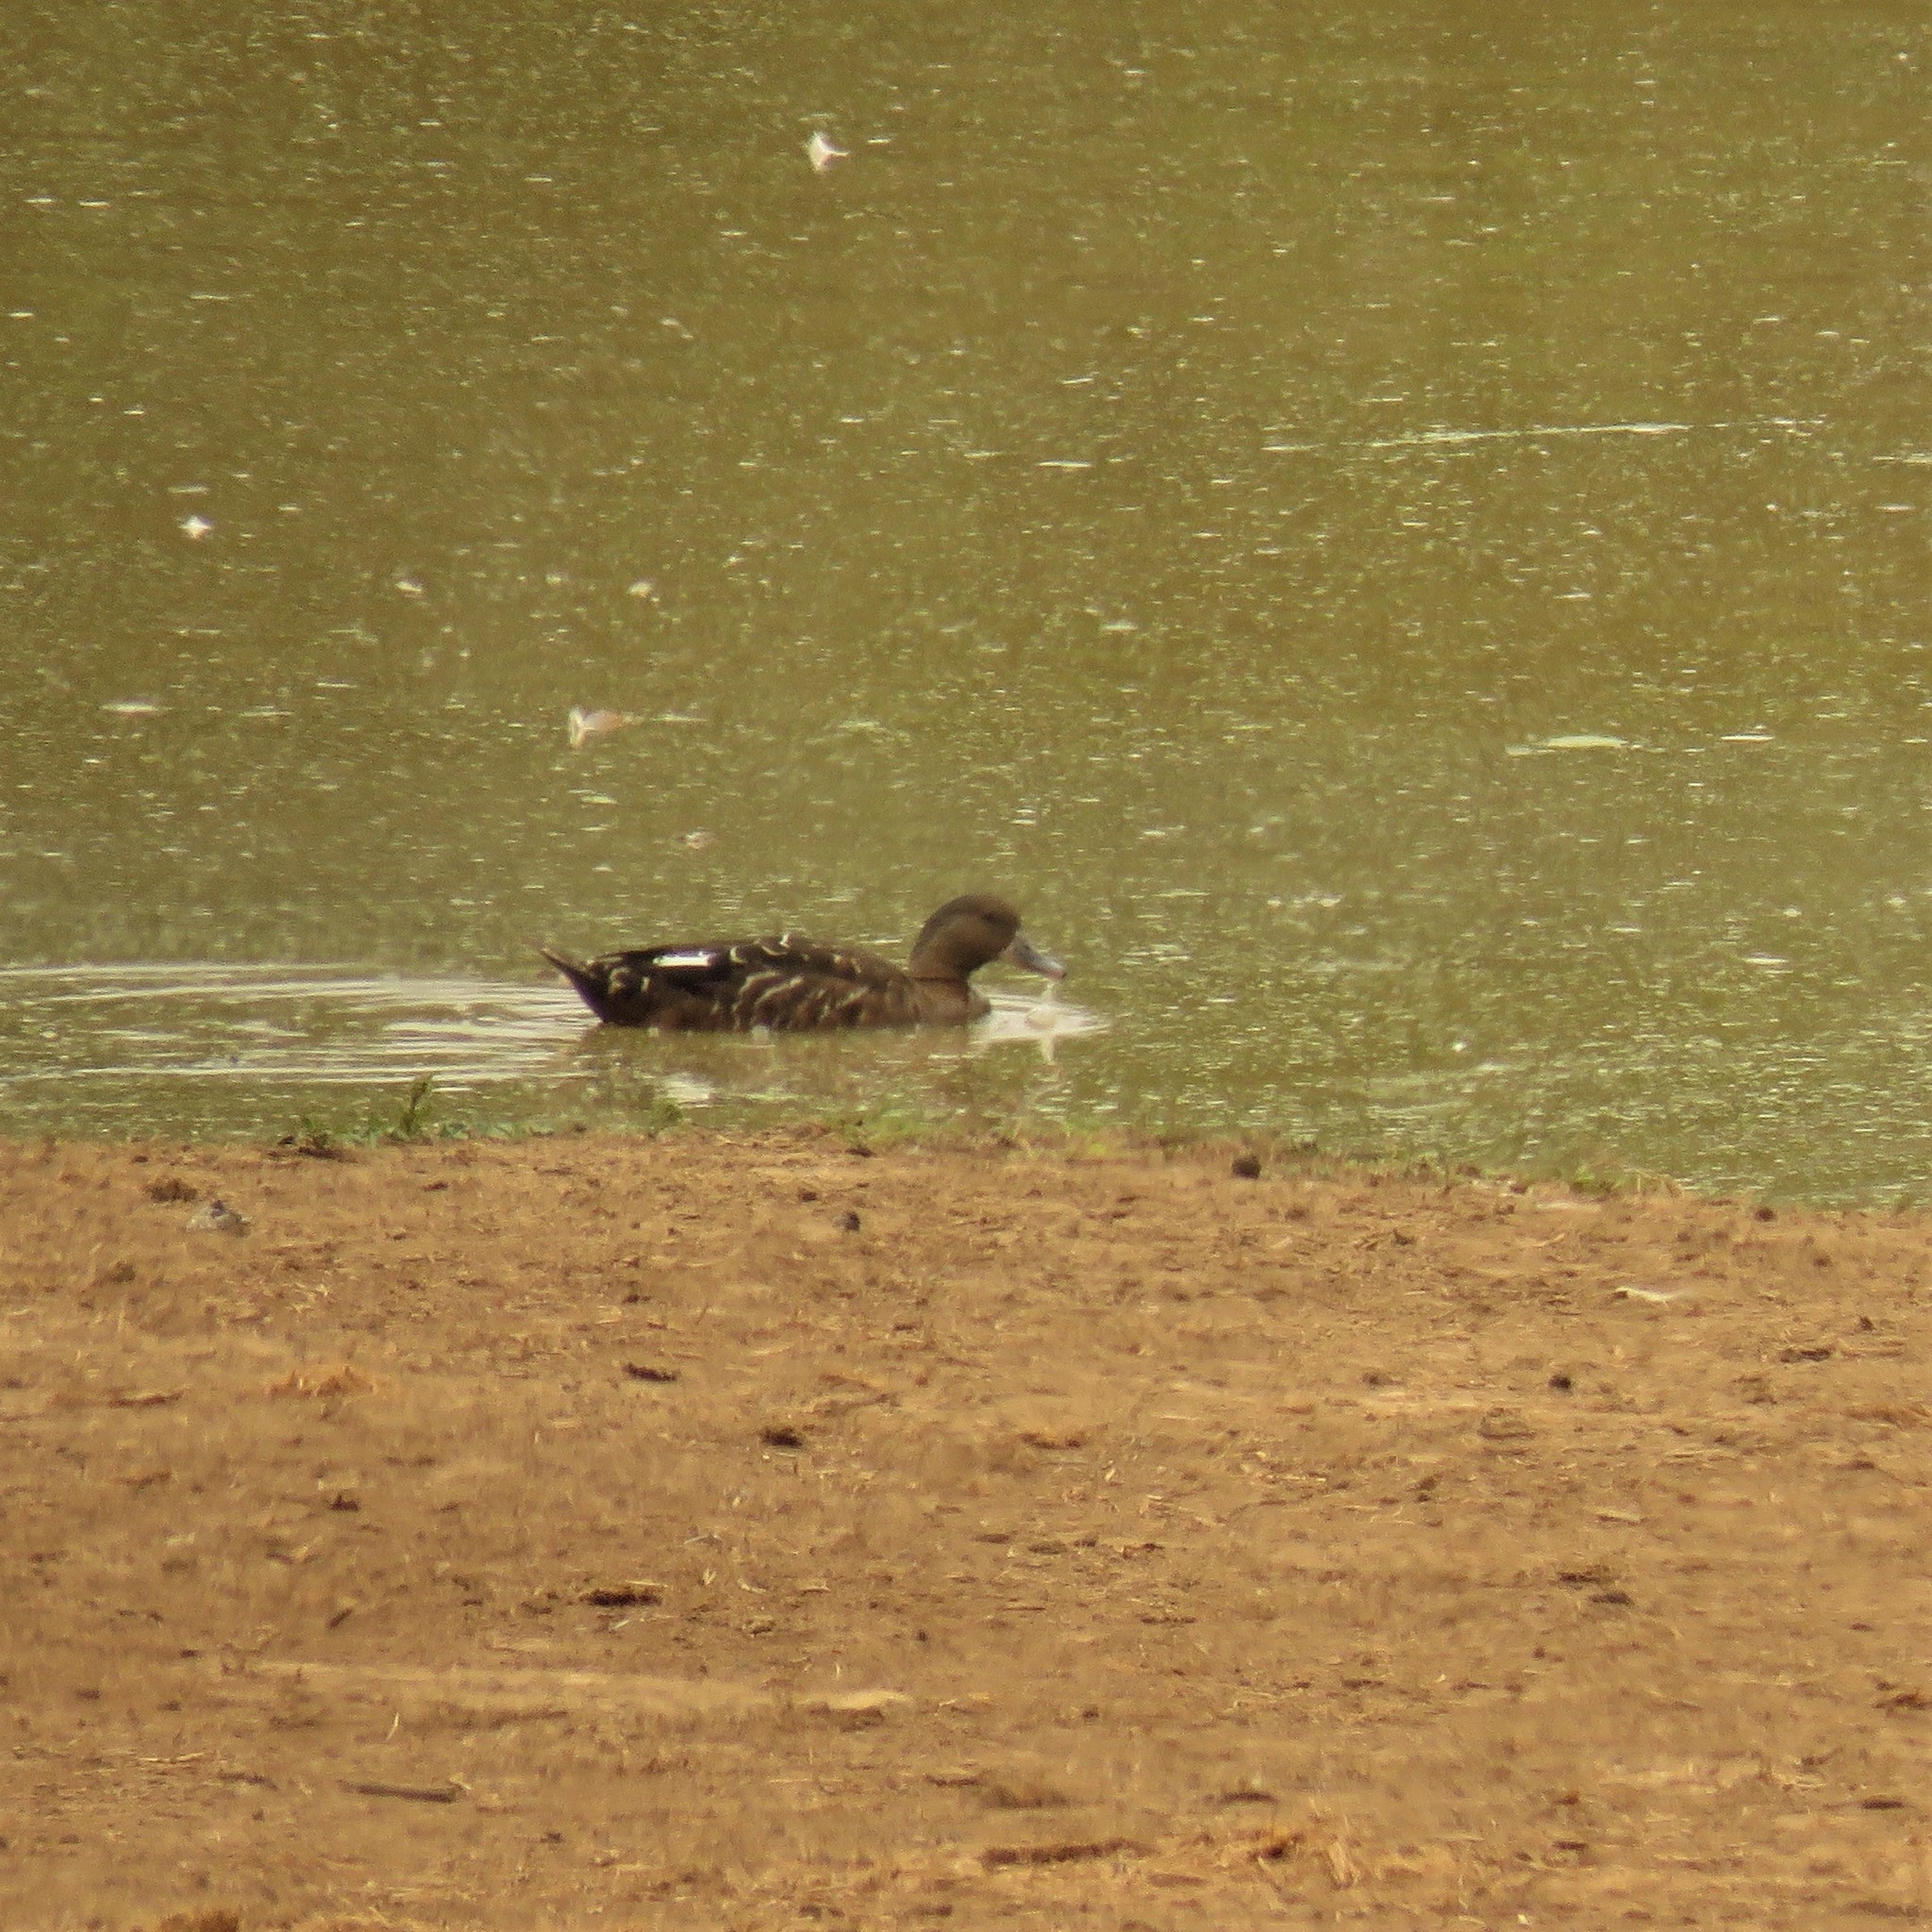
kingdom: Animalia
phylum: Chordata
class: Aves
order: Anseriformes
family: Anatidae
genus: Anas
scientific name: Anas sparsa
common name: African black duck
